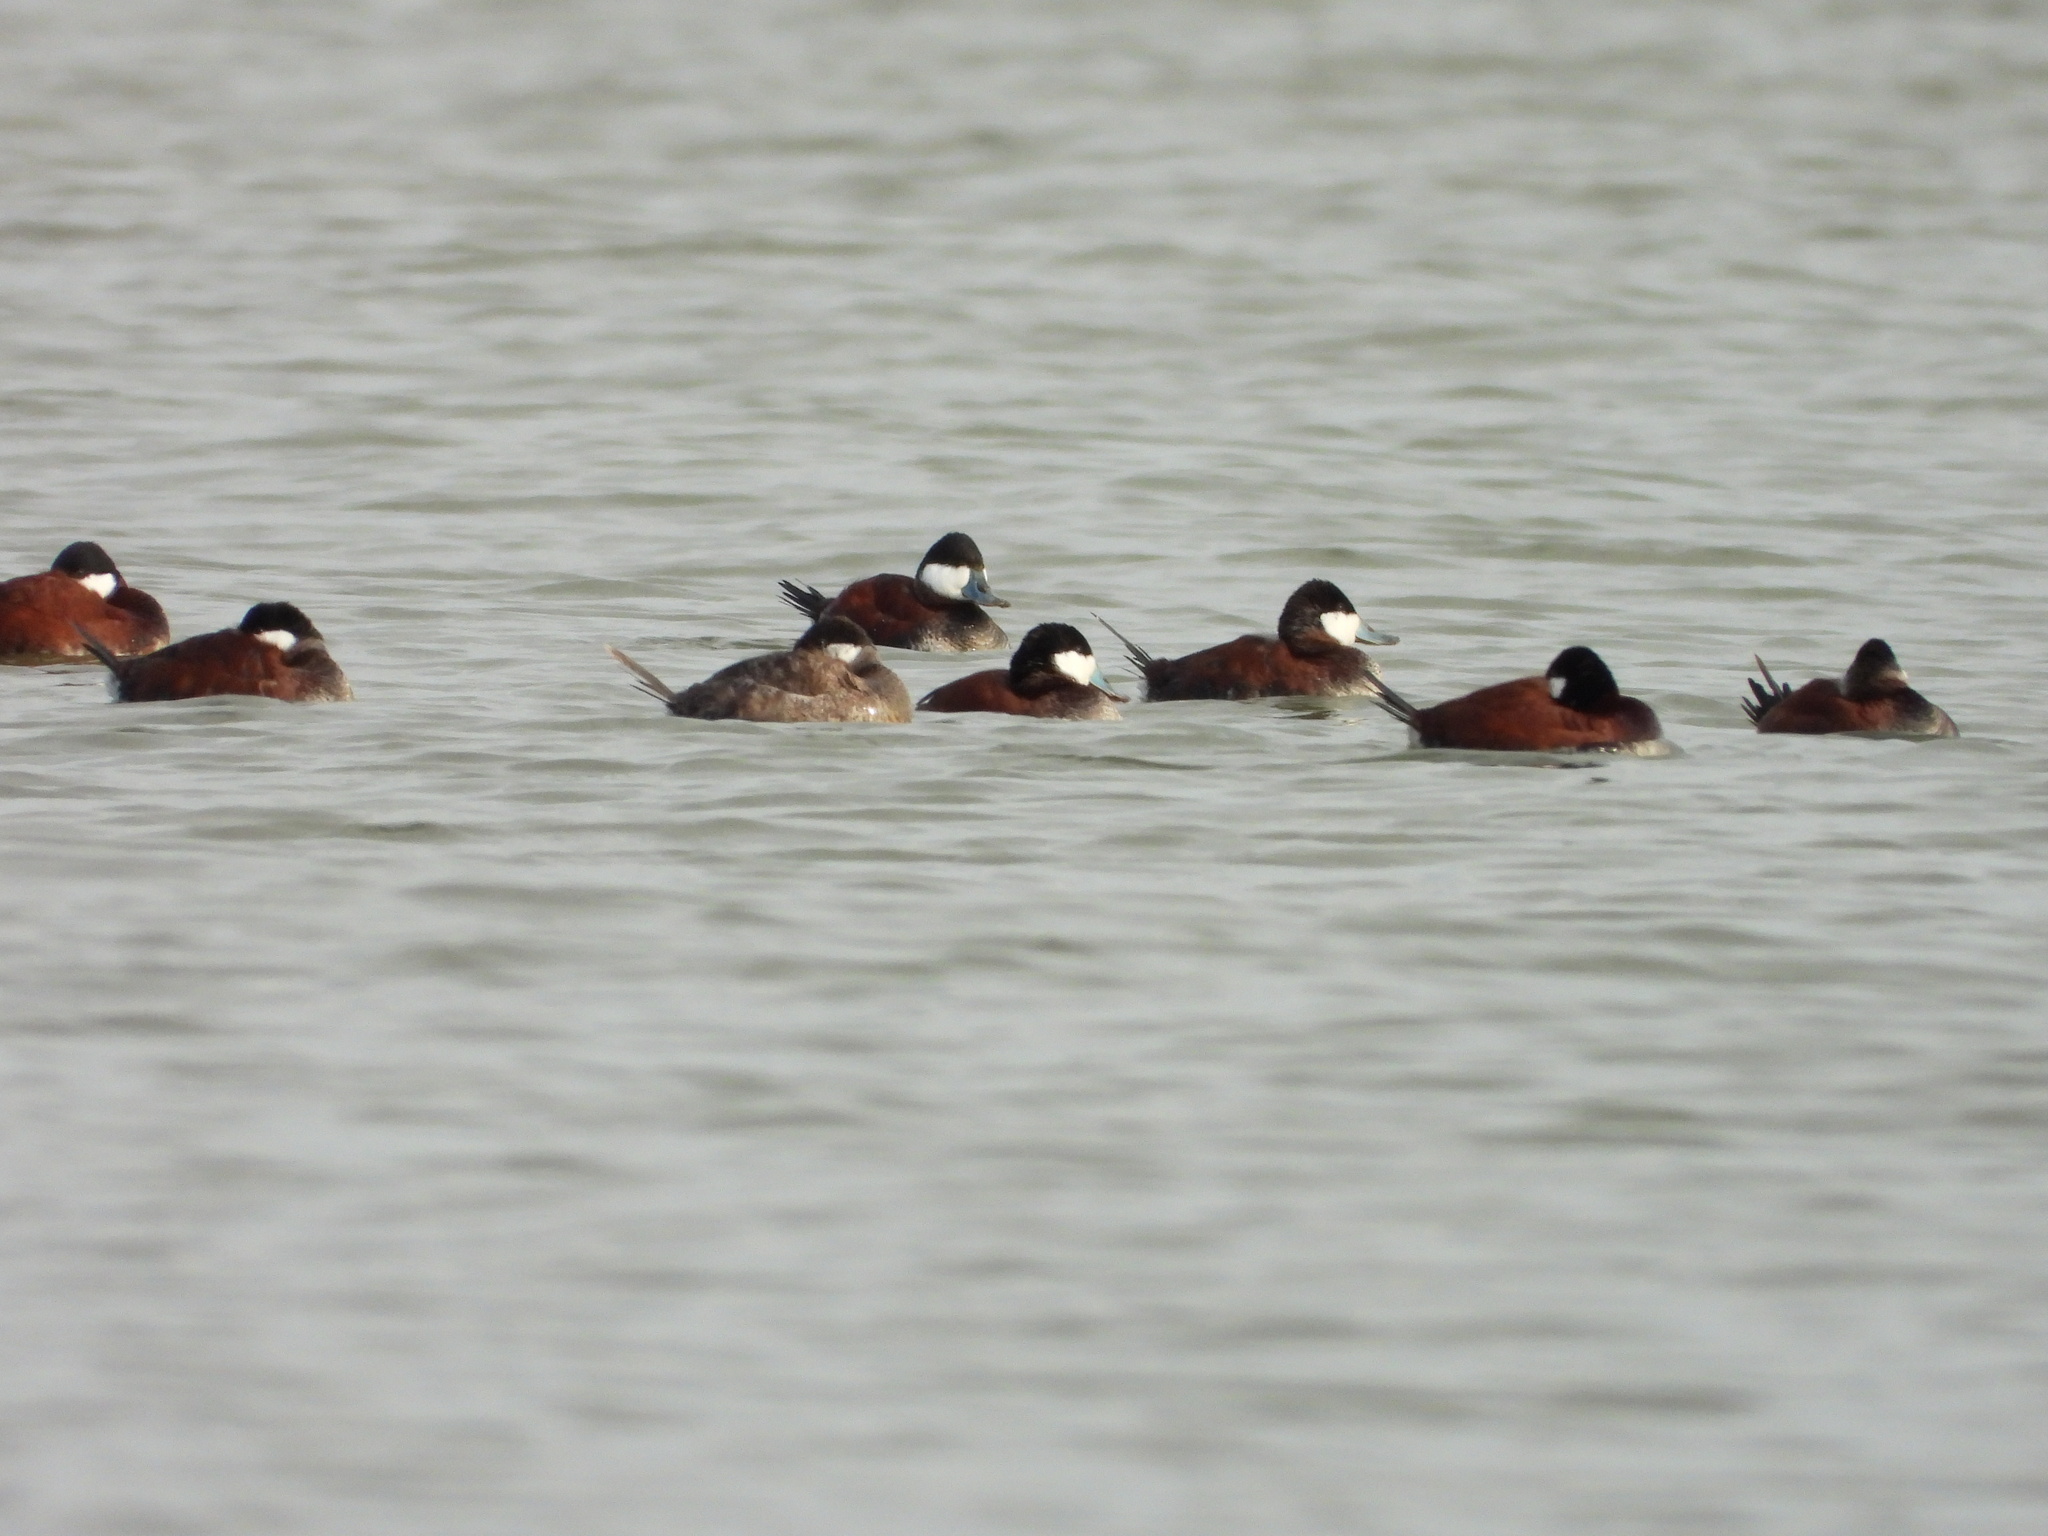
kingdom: Animalia
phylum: Chordata
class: Aves
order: Anseriformes
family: Anatidae
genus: Oxyura
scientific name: Oxyura jamaicensis
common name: Ruddy duck
